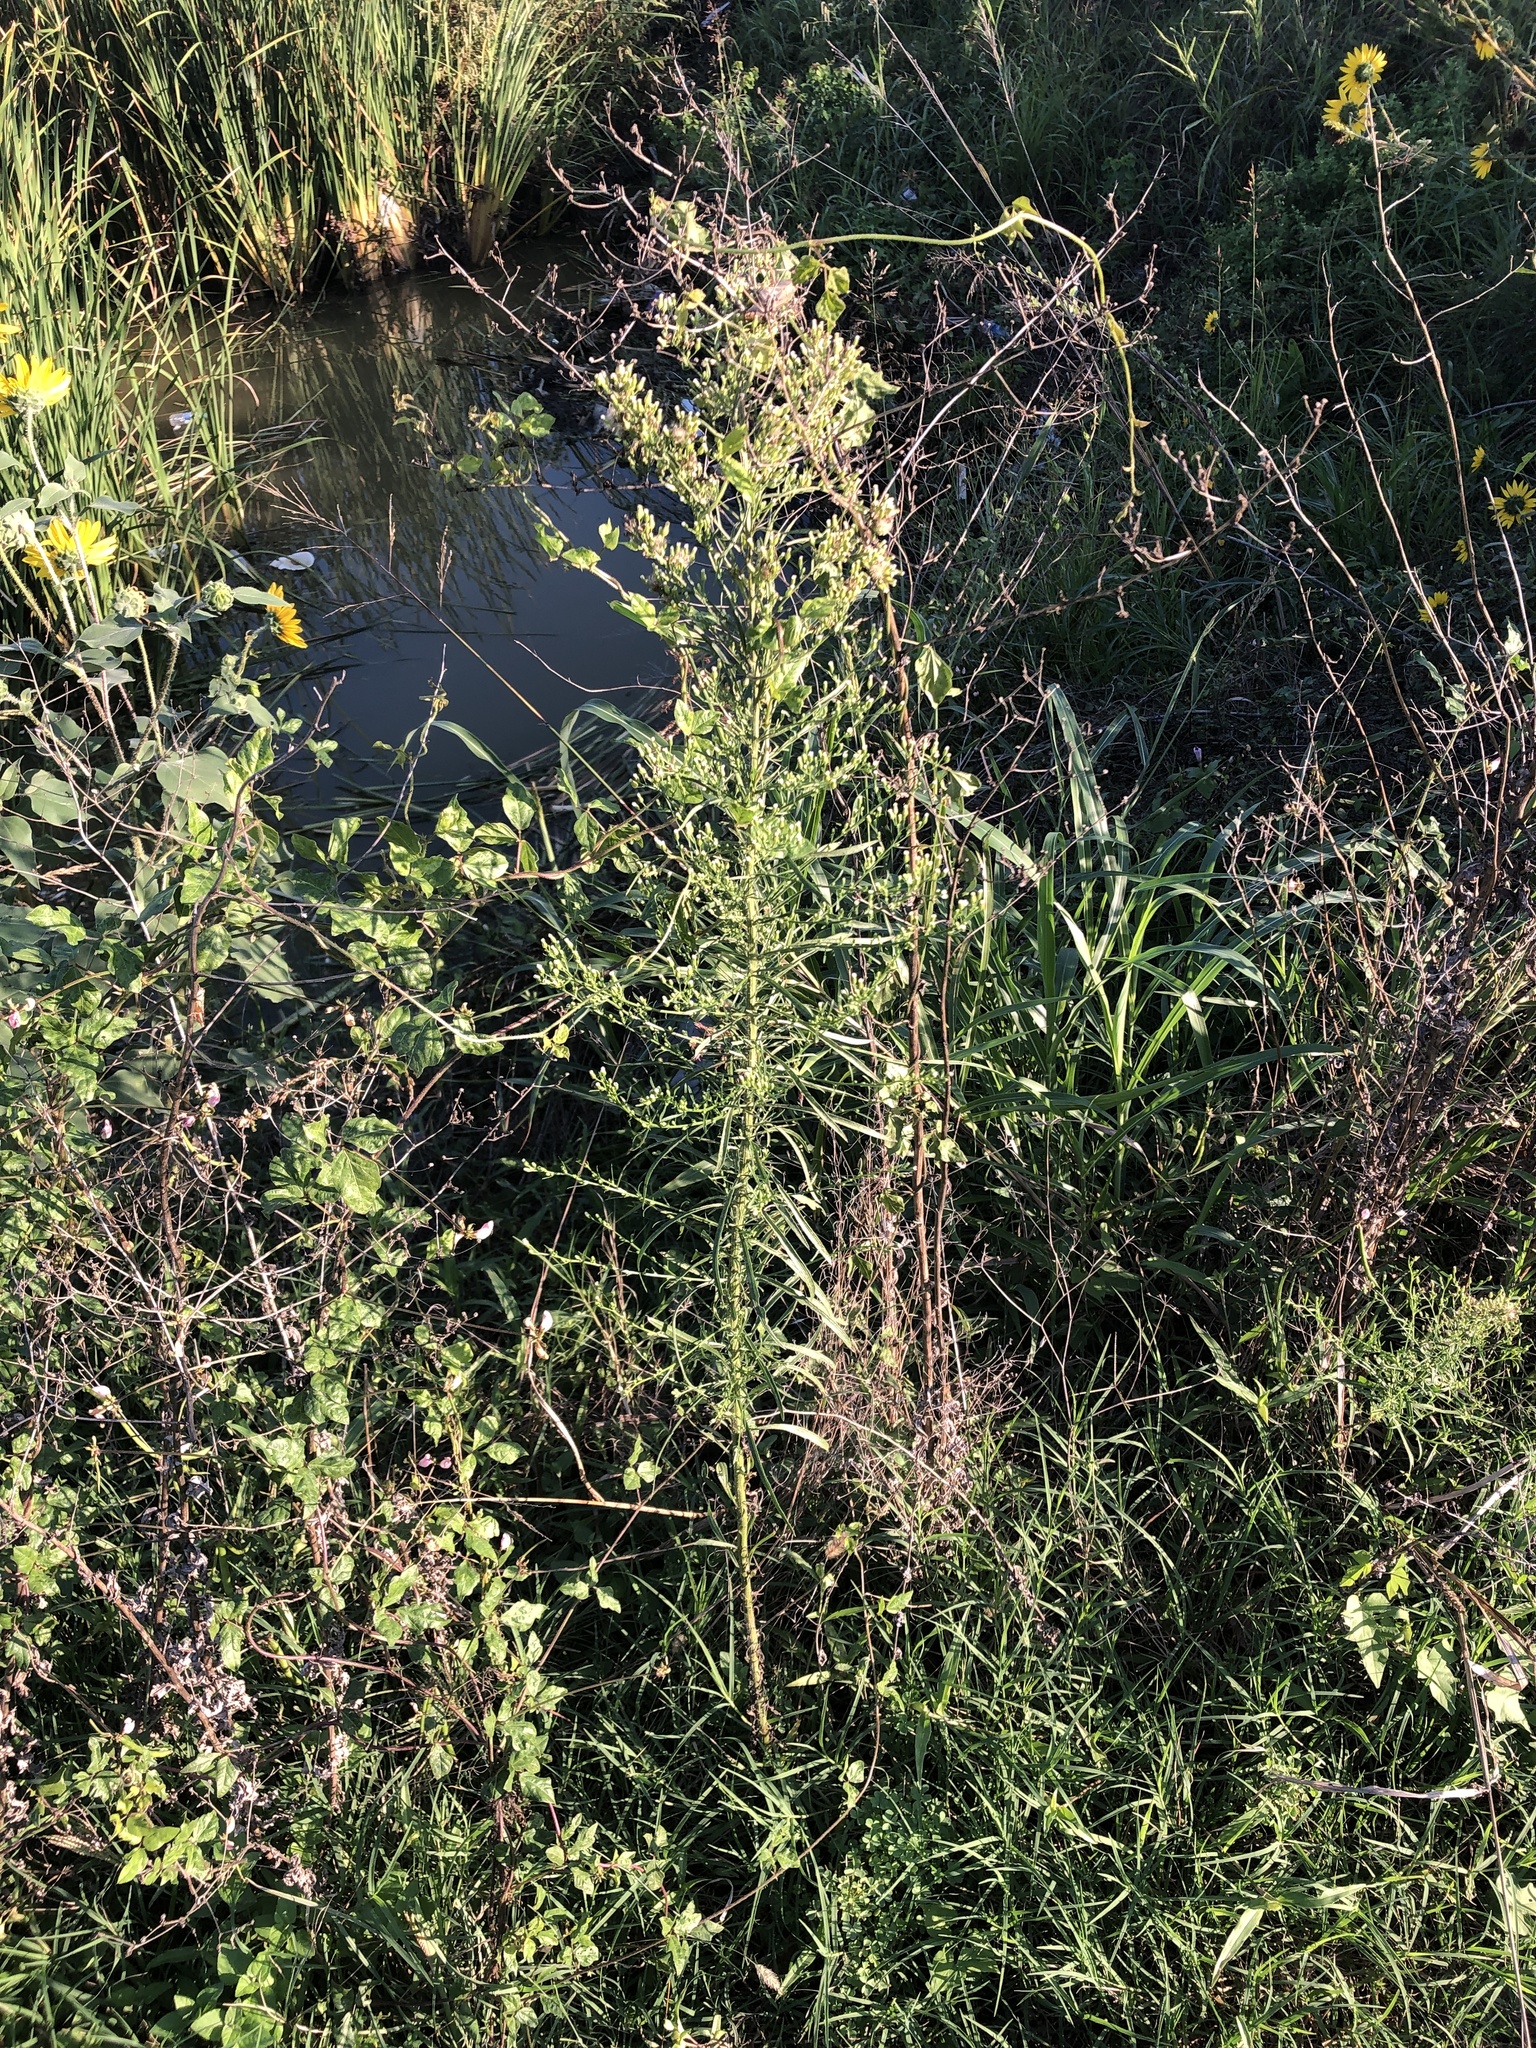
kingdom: Plantae
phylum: Tracheophyta
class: Magnoliopsida
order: Asterales
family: Asteraceae
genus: Erigeron
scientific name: Erigeron canadensis
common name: Canadian fleabane
